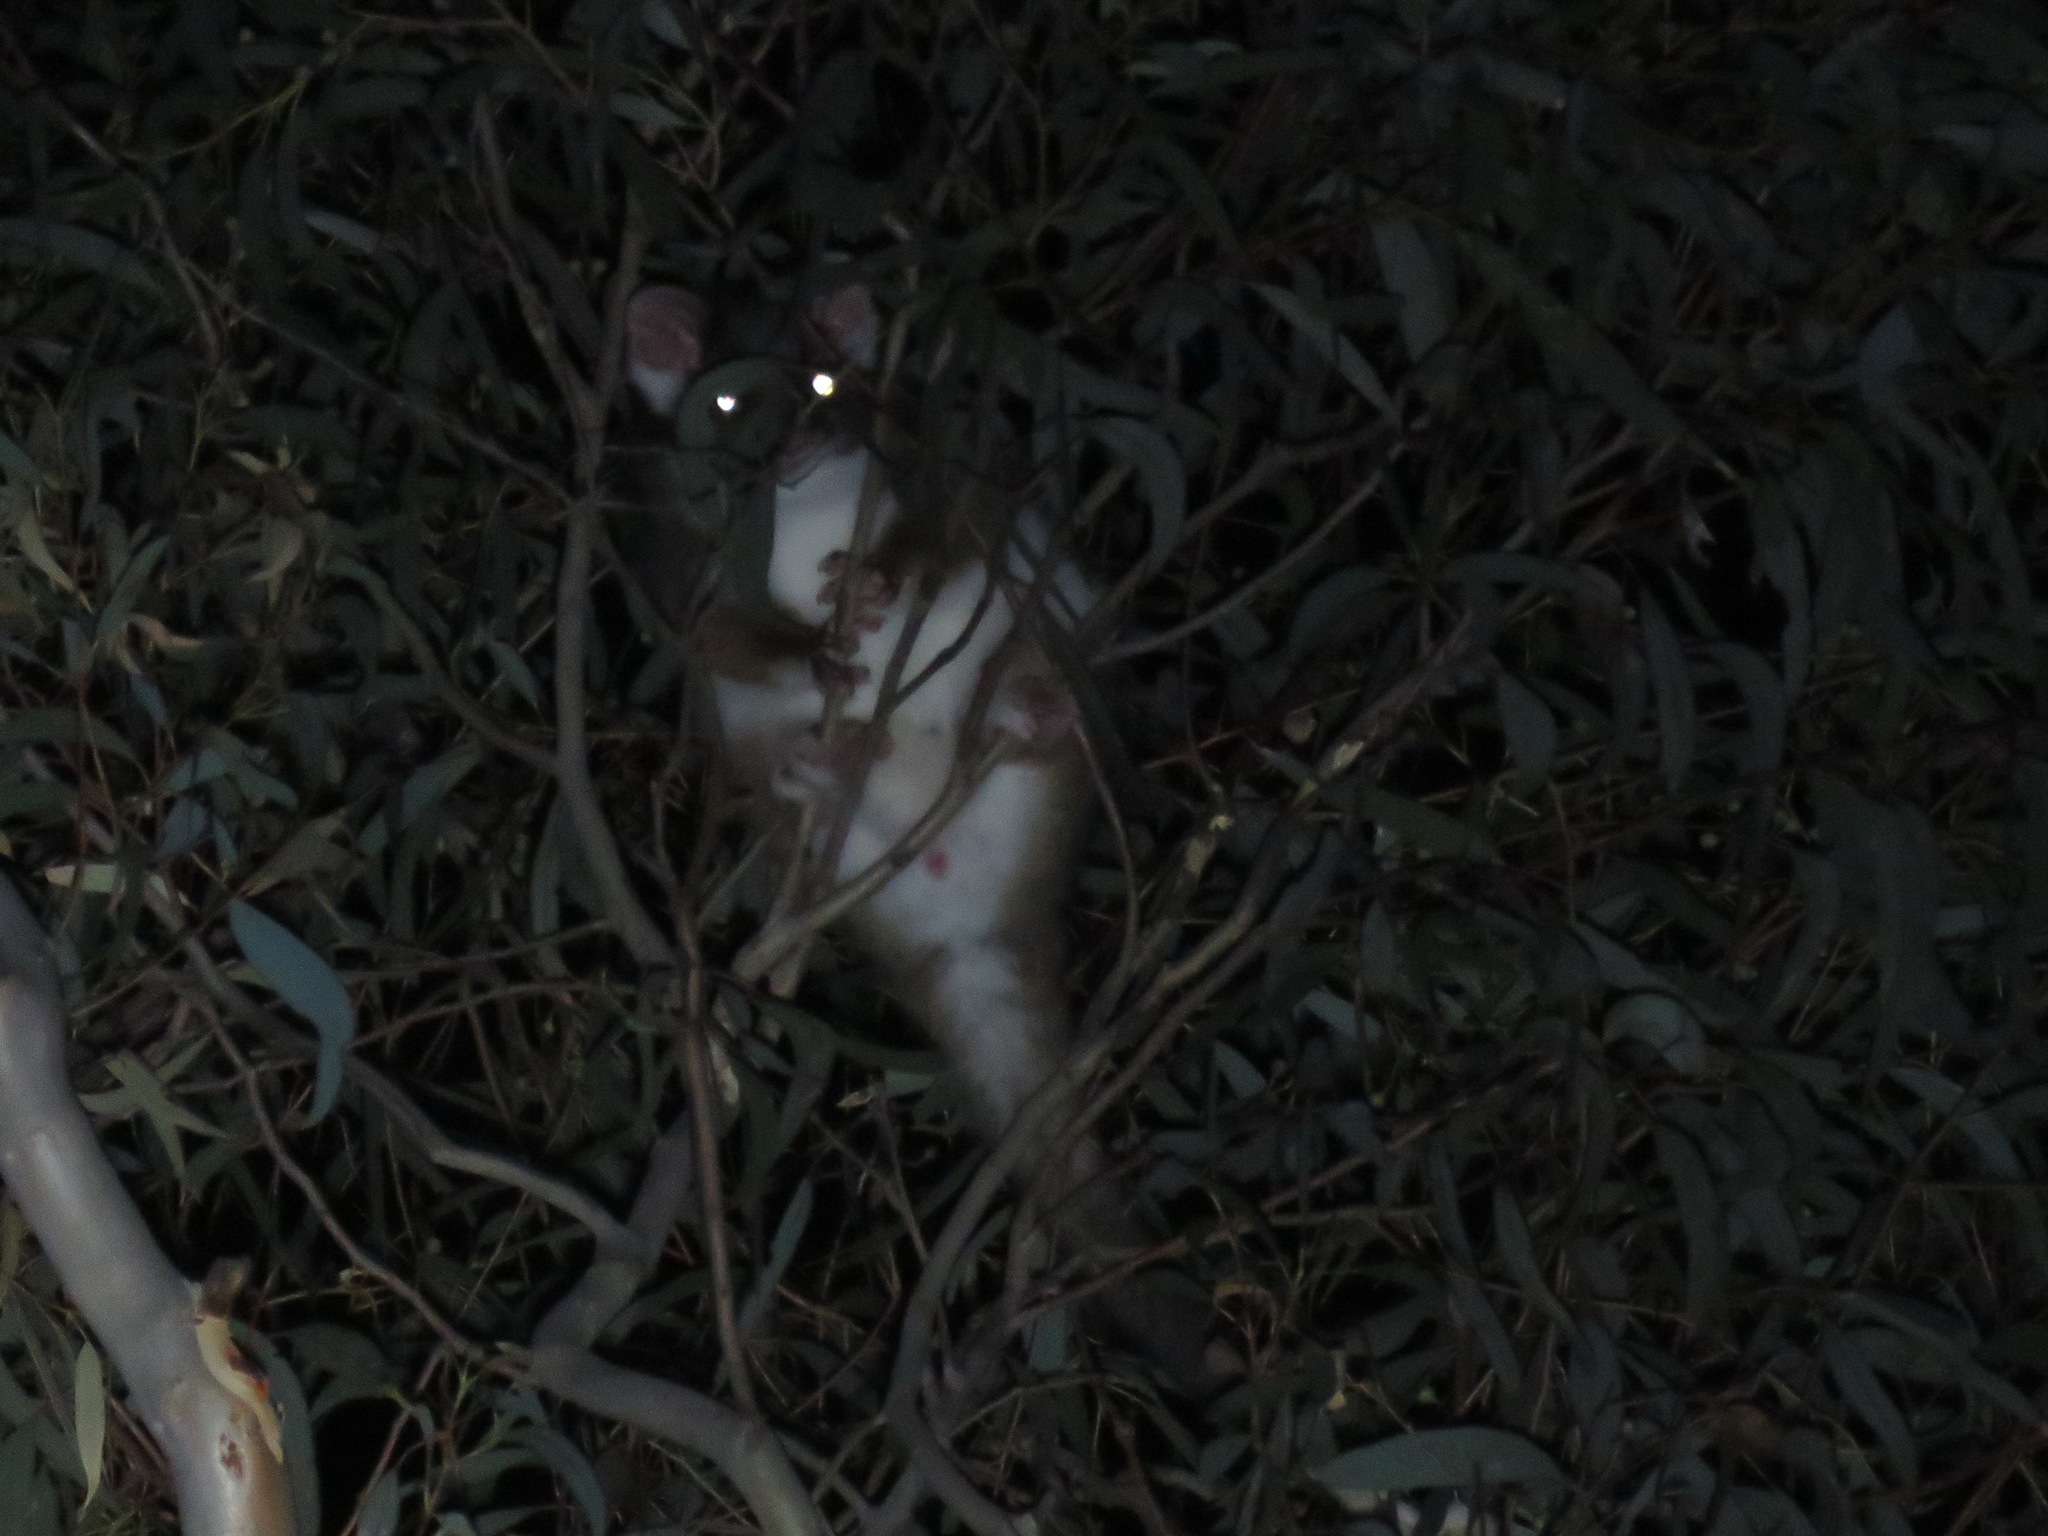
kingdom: Animalia
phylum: Chordata
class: Mammalia
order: Diprotodontia
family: Pseudocheiridae
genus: Pseudocheirus
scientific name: Pseudocheirus peregrinus
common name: Common ringtail possum
